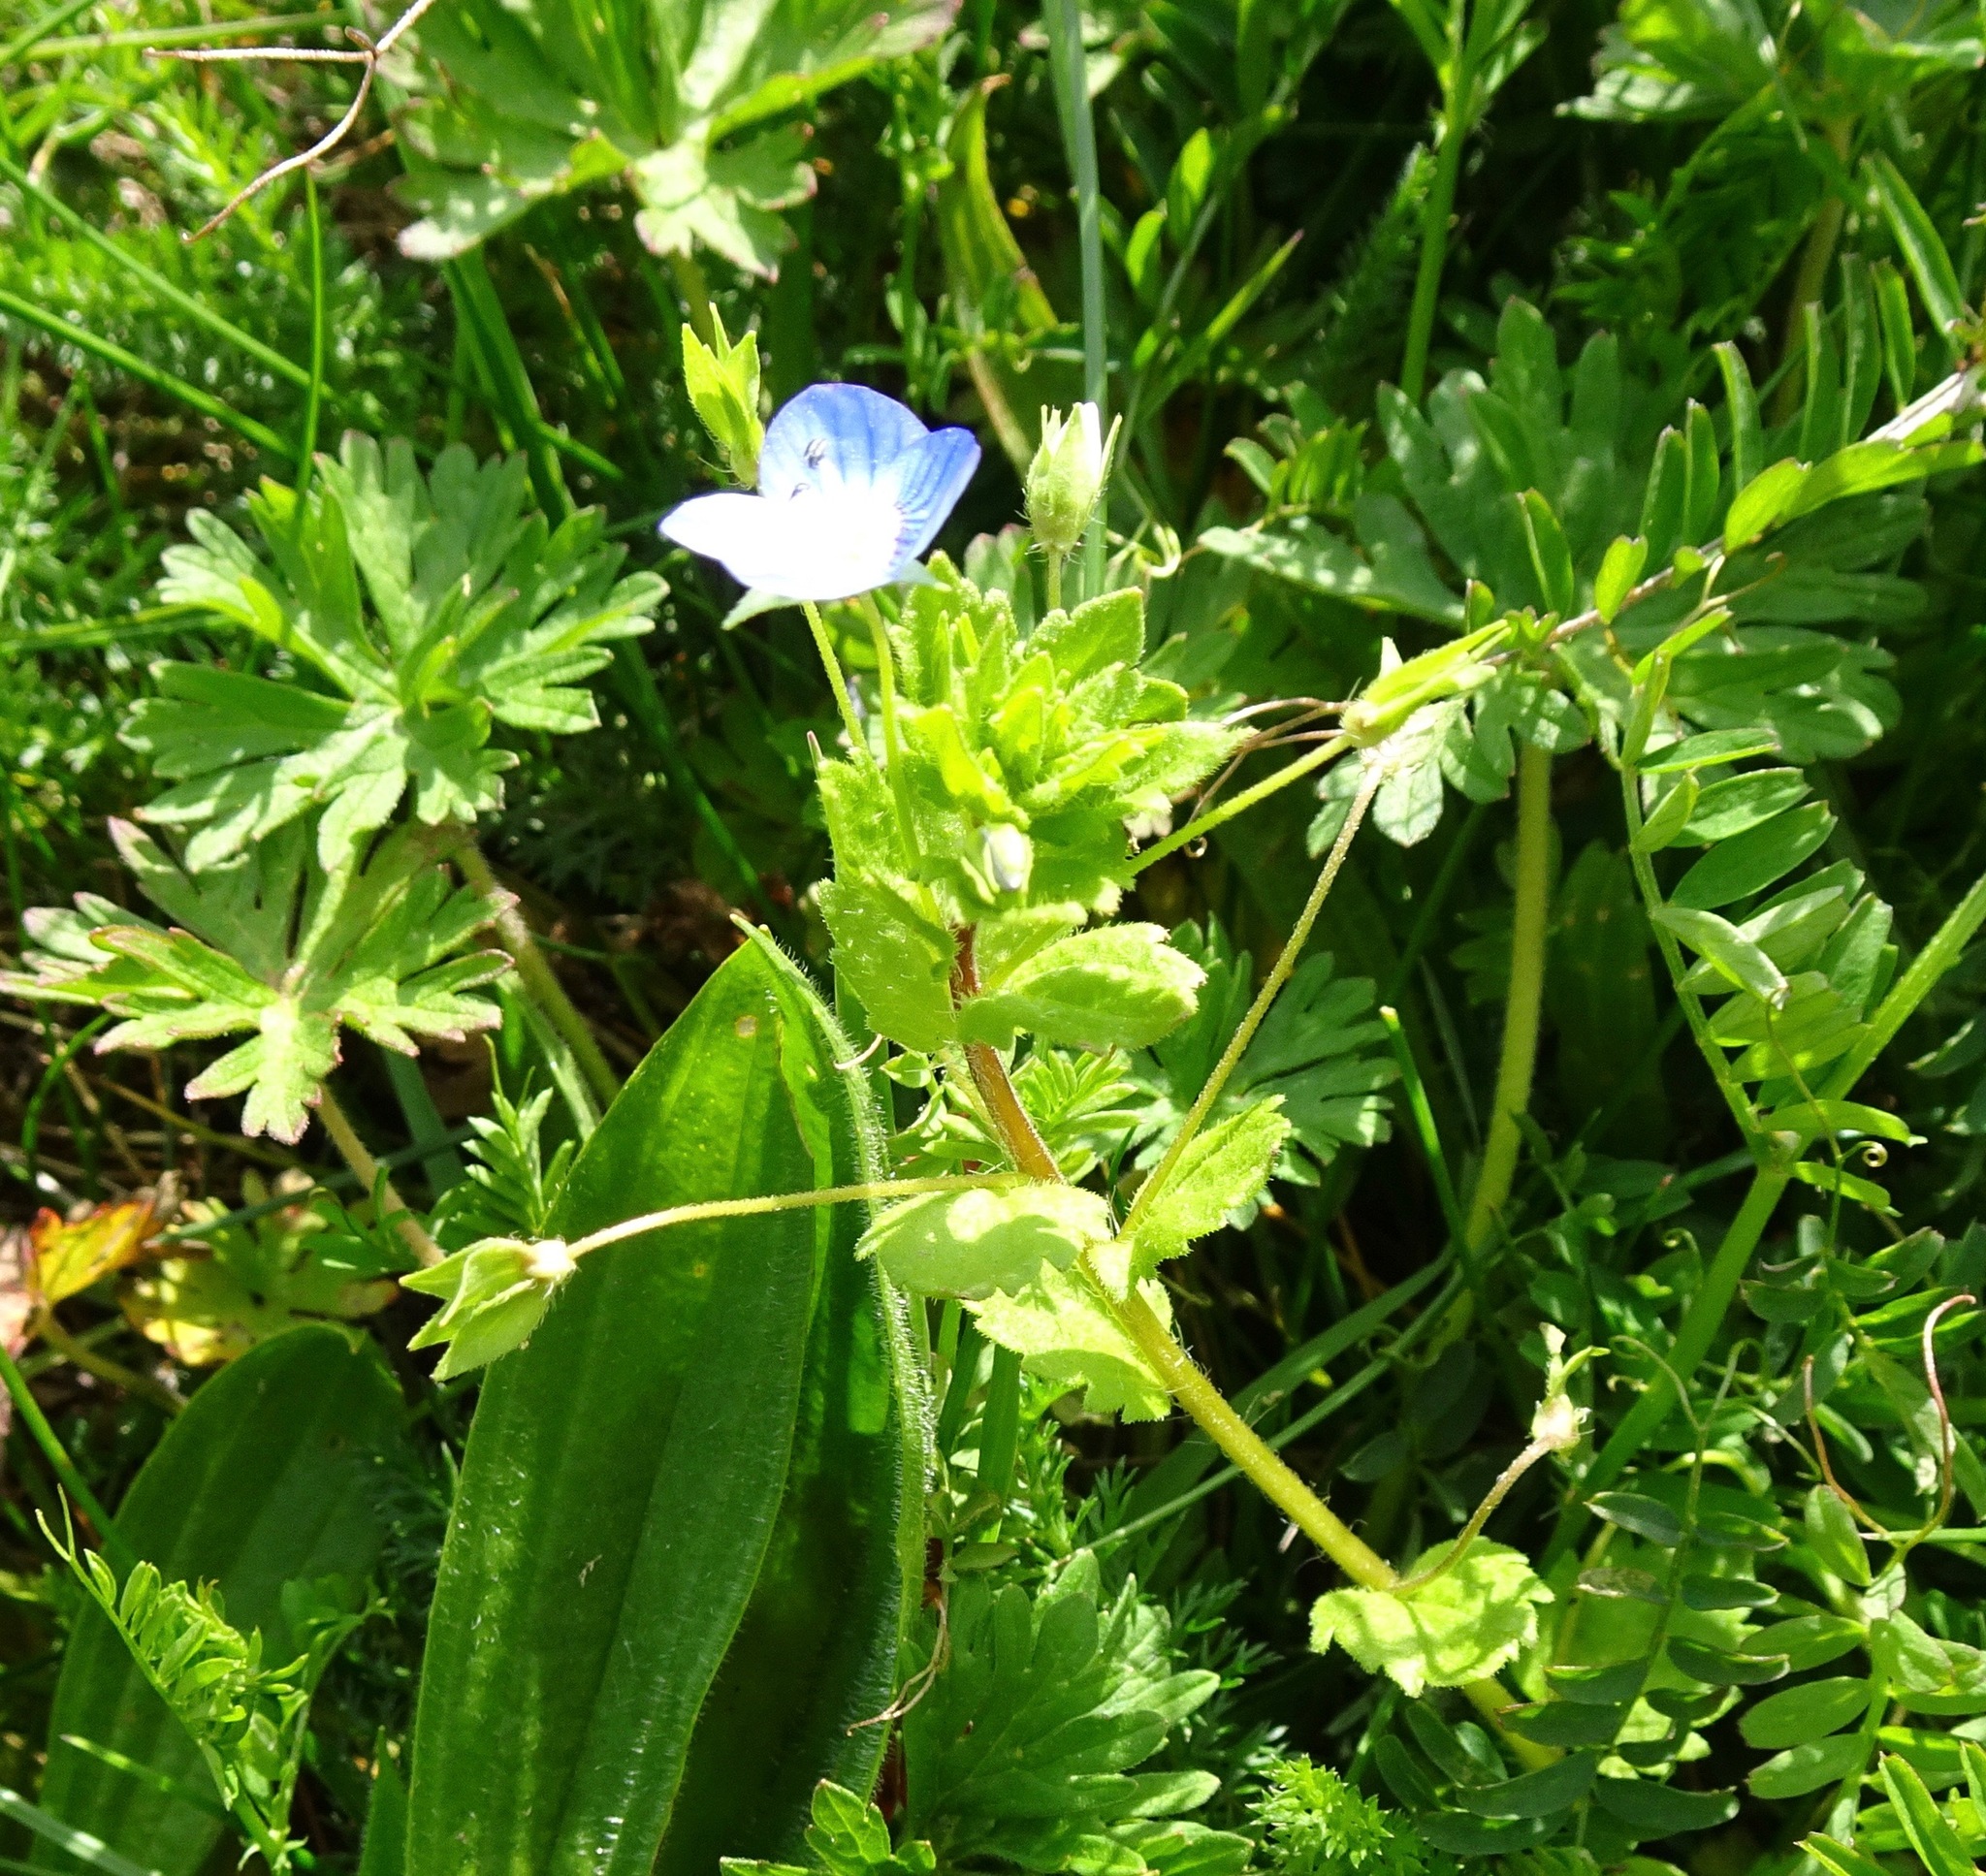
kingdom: Plantae
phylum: Tracheophyta
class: Magnoliopsida
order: Lamiales
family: Plantaginaceae
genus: Veronica
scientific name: Veronica persica
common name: Common field-speedwell
